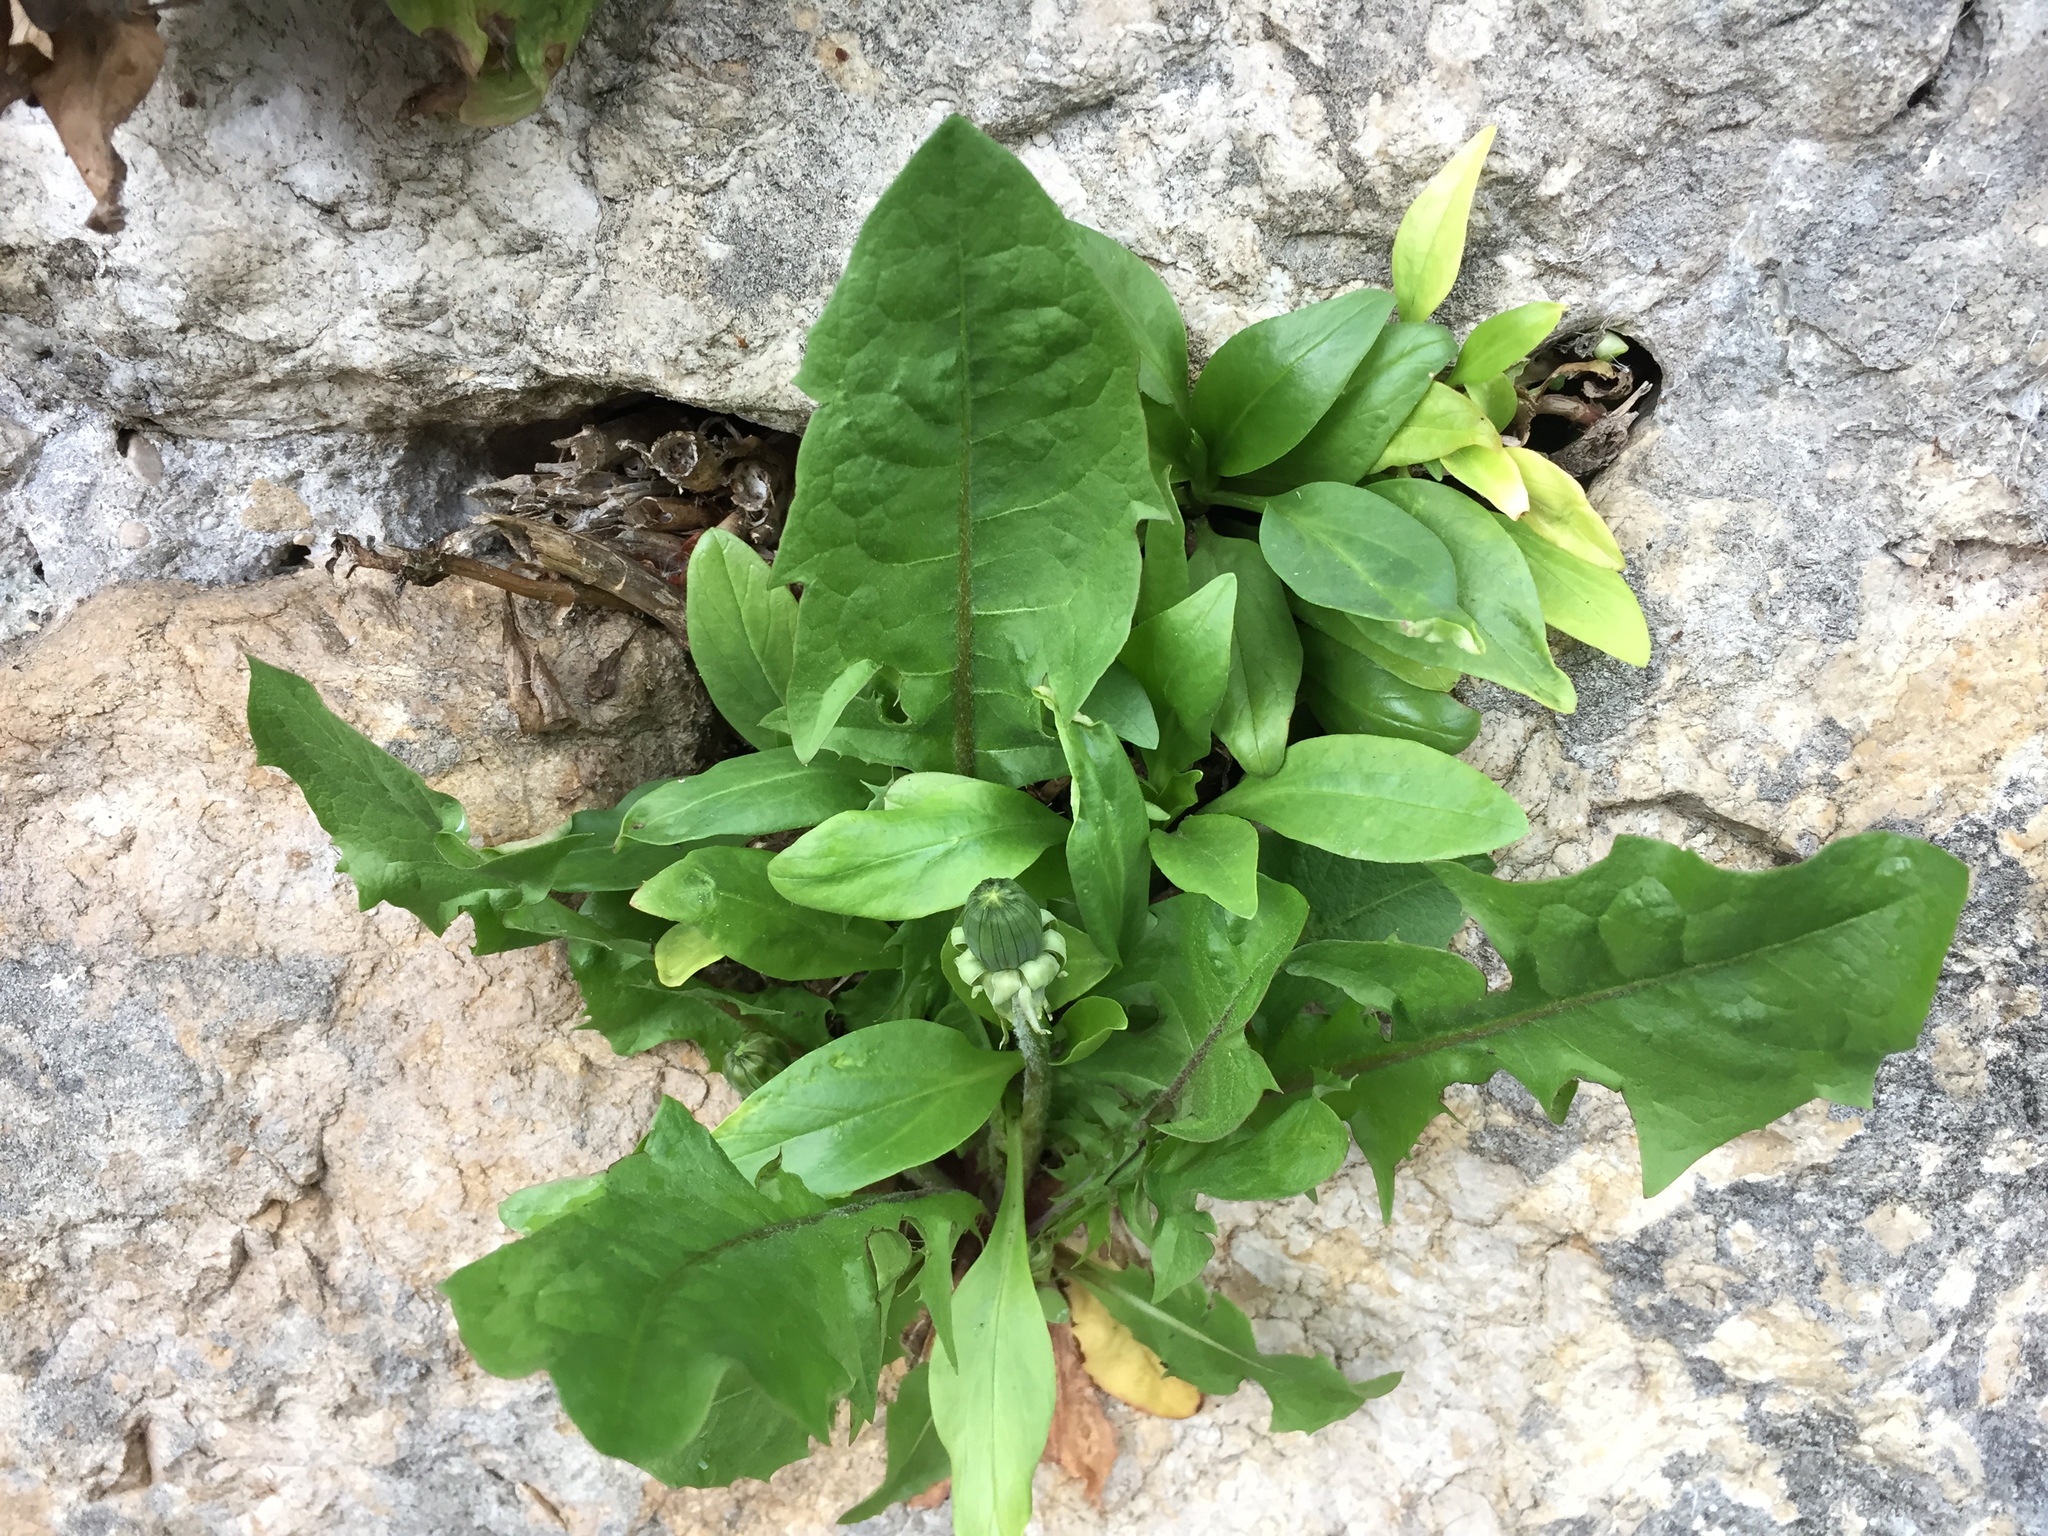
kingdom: Plantae
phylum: Tracheophyta
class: Magnoliopsida
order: Asterales
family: Asteraceae
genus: Taraxacum
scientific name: Taraxacum officinale
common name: Common dandelion
